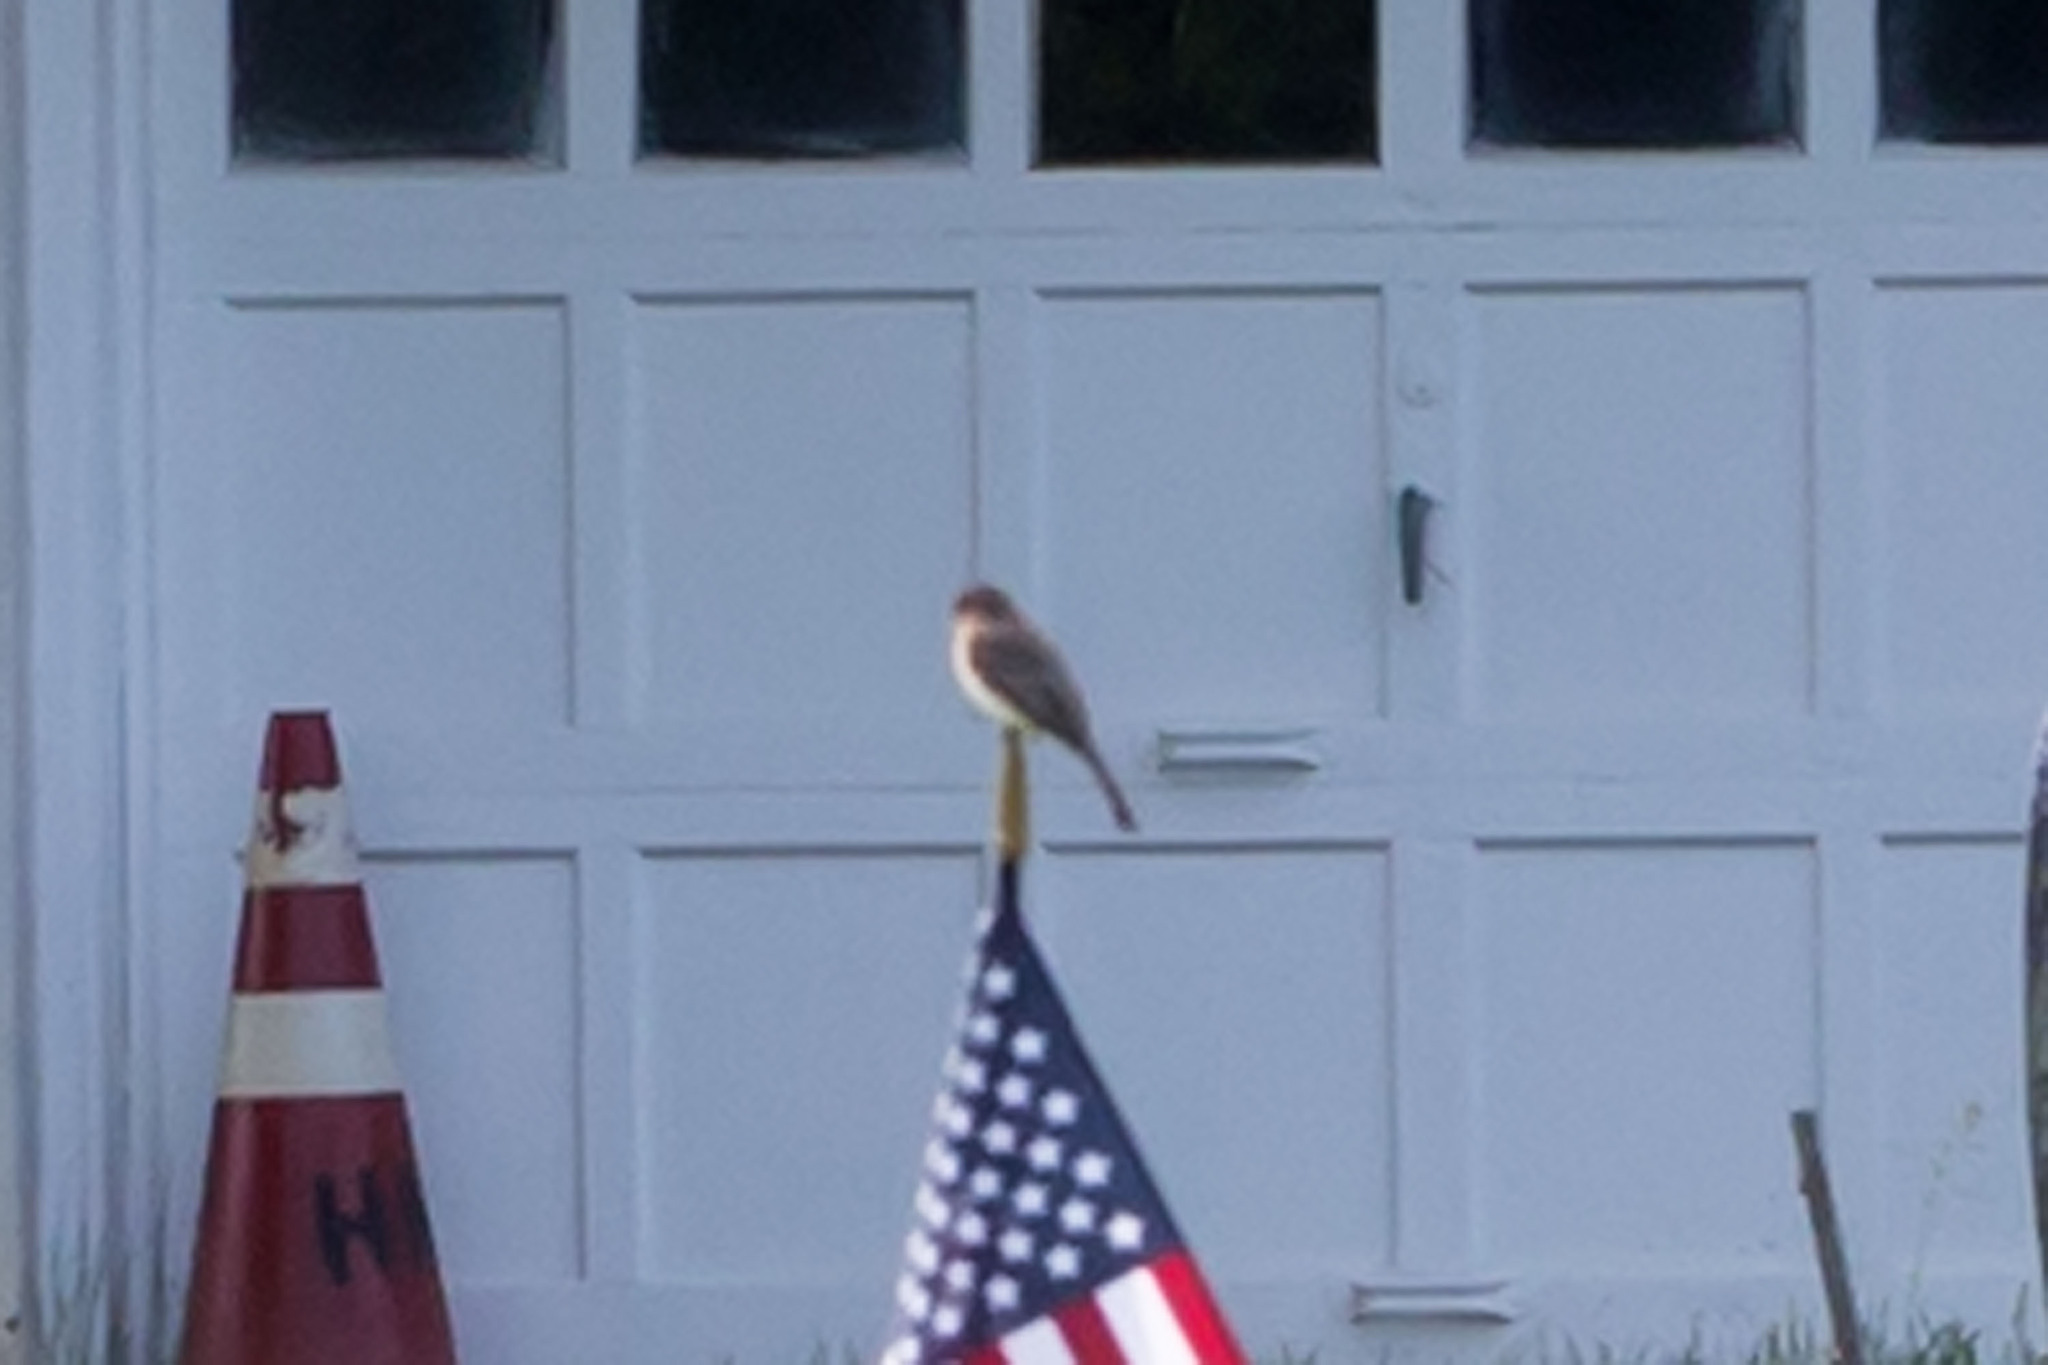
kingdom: Animalia
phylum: Chordata
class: Aves
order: Passeriformes
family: Tyrannidae
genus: Sayornis
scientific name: Sayornis phoebe
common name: Eastern phoebe
